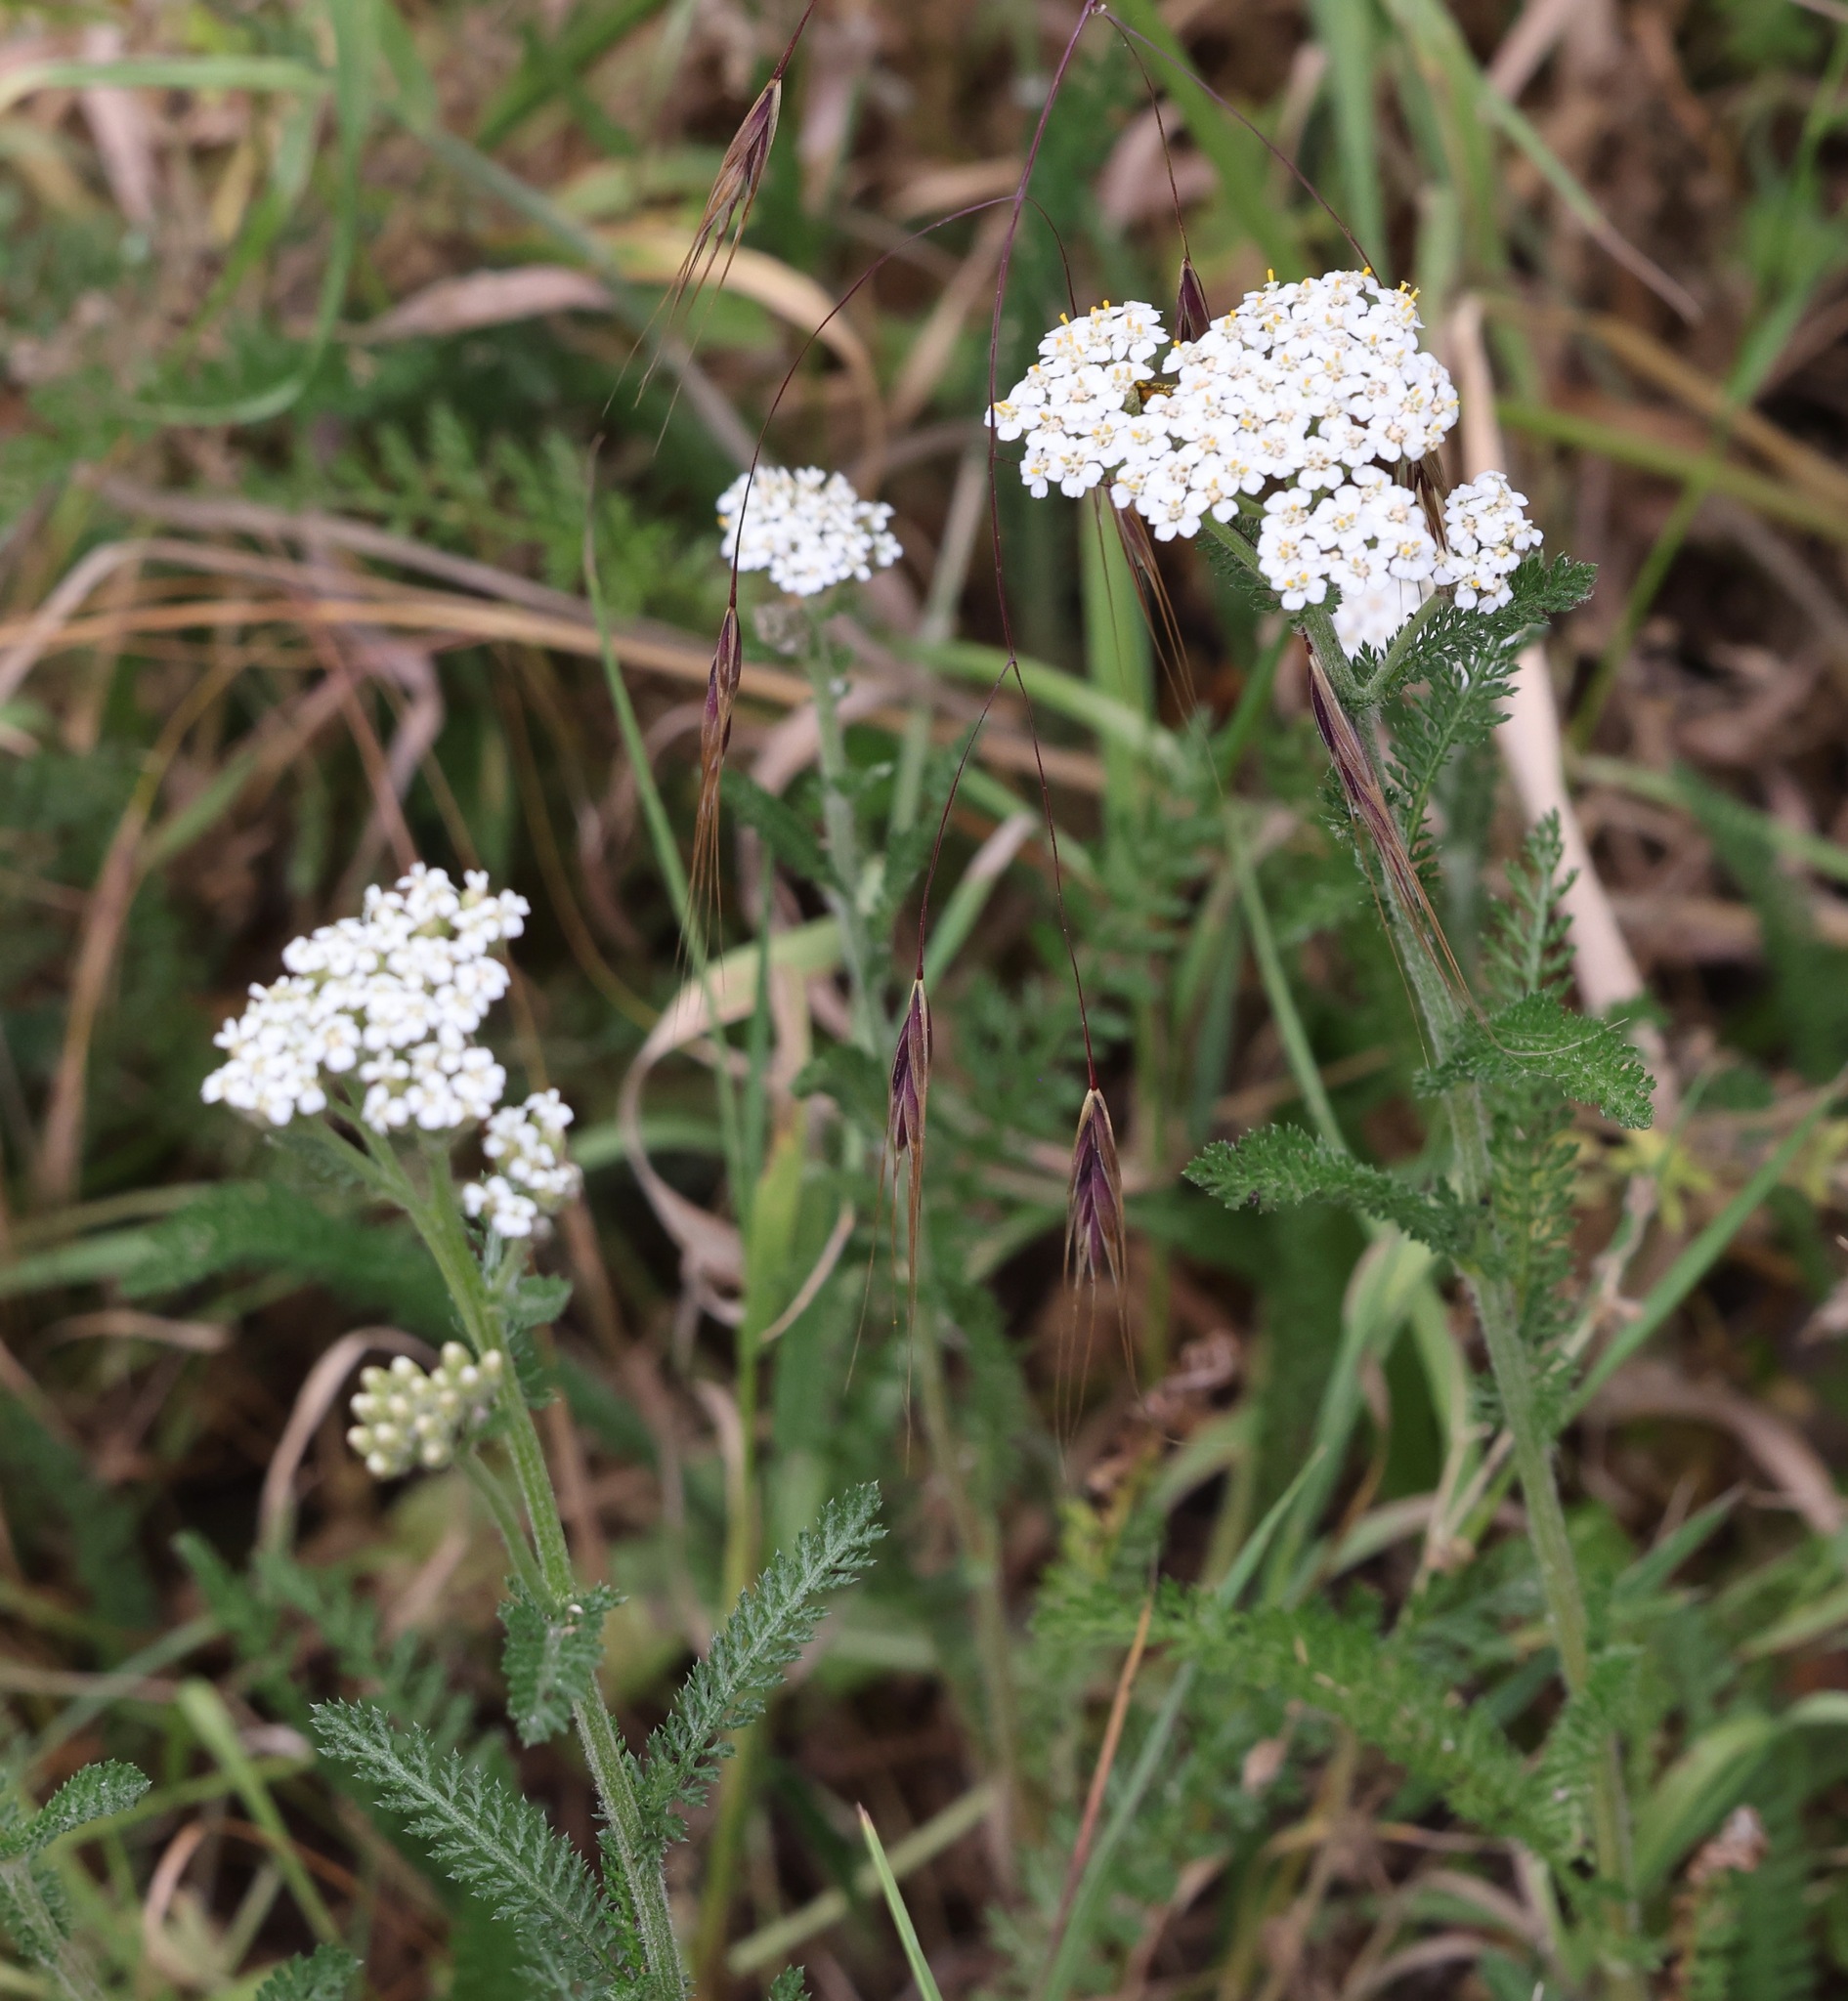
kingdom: Plantae
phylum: Tracheophyta
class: Magnoliopsida
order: Asterales
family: Asteraceae
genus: Achillea
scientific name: Achillea millefolium
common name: Yarrow
